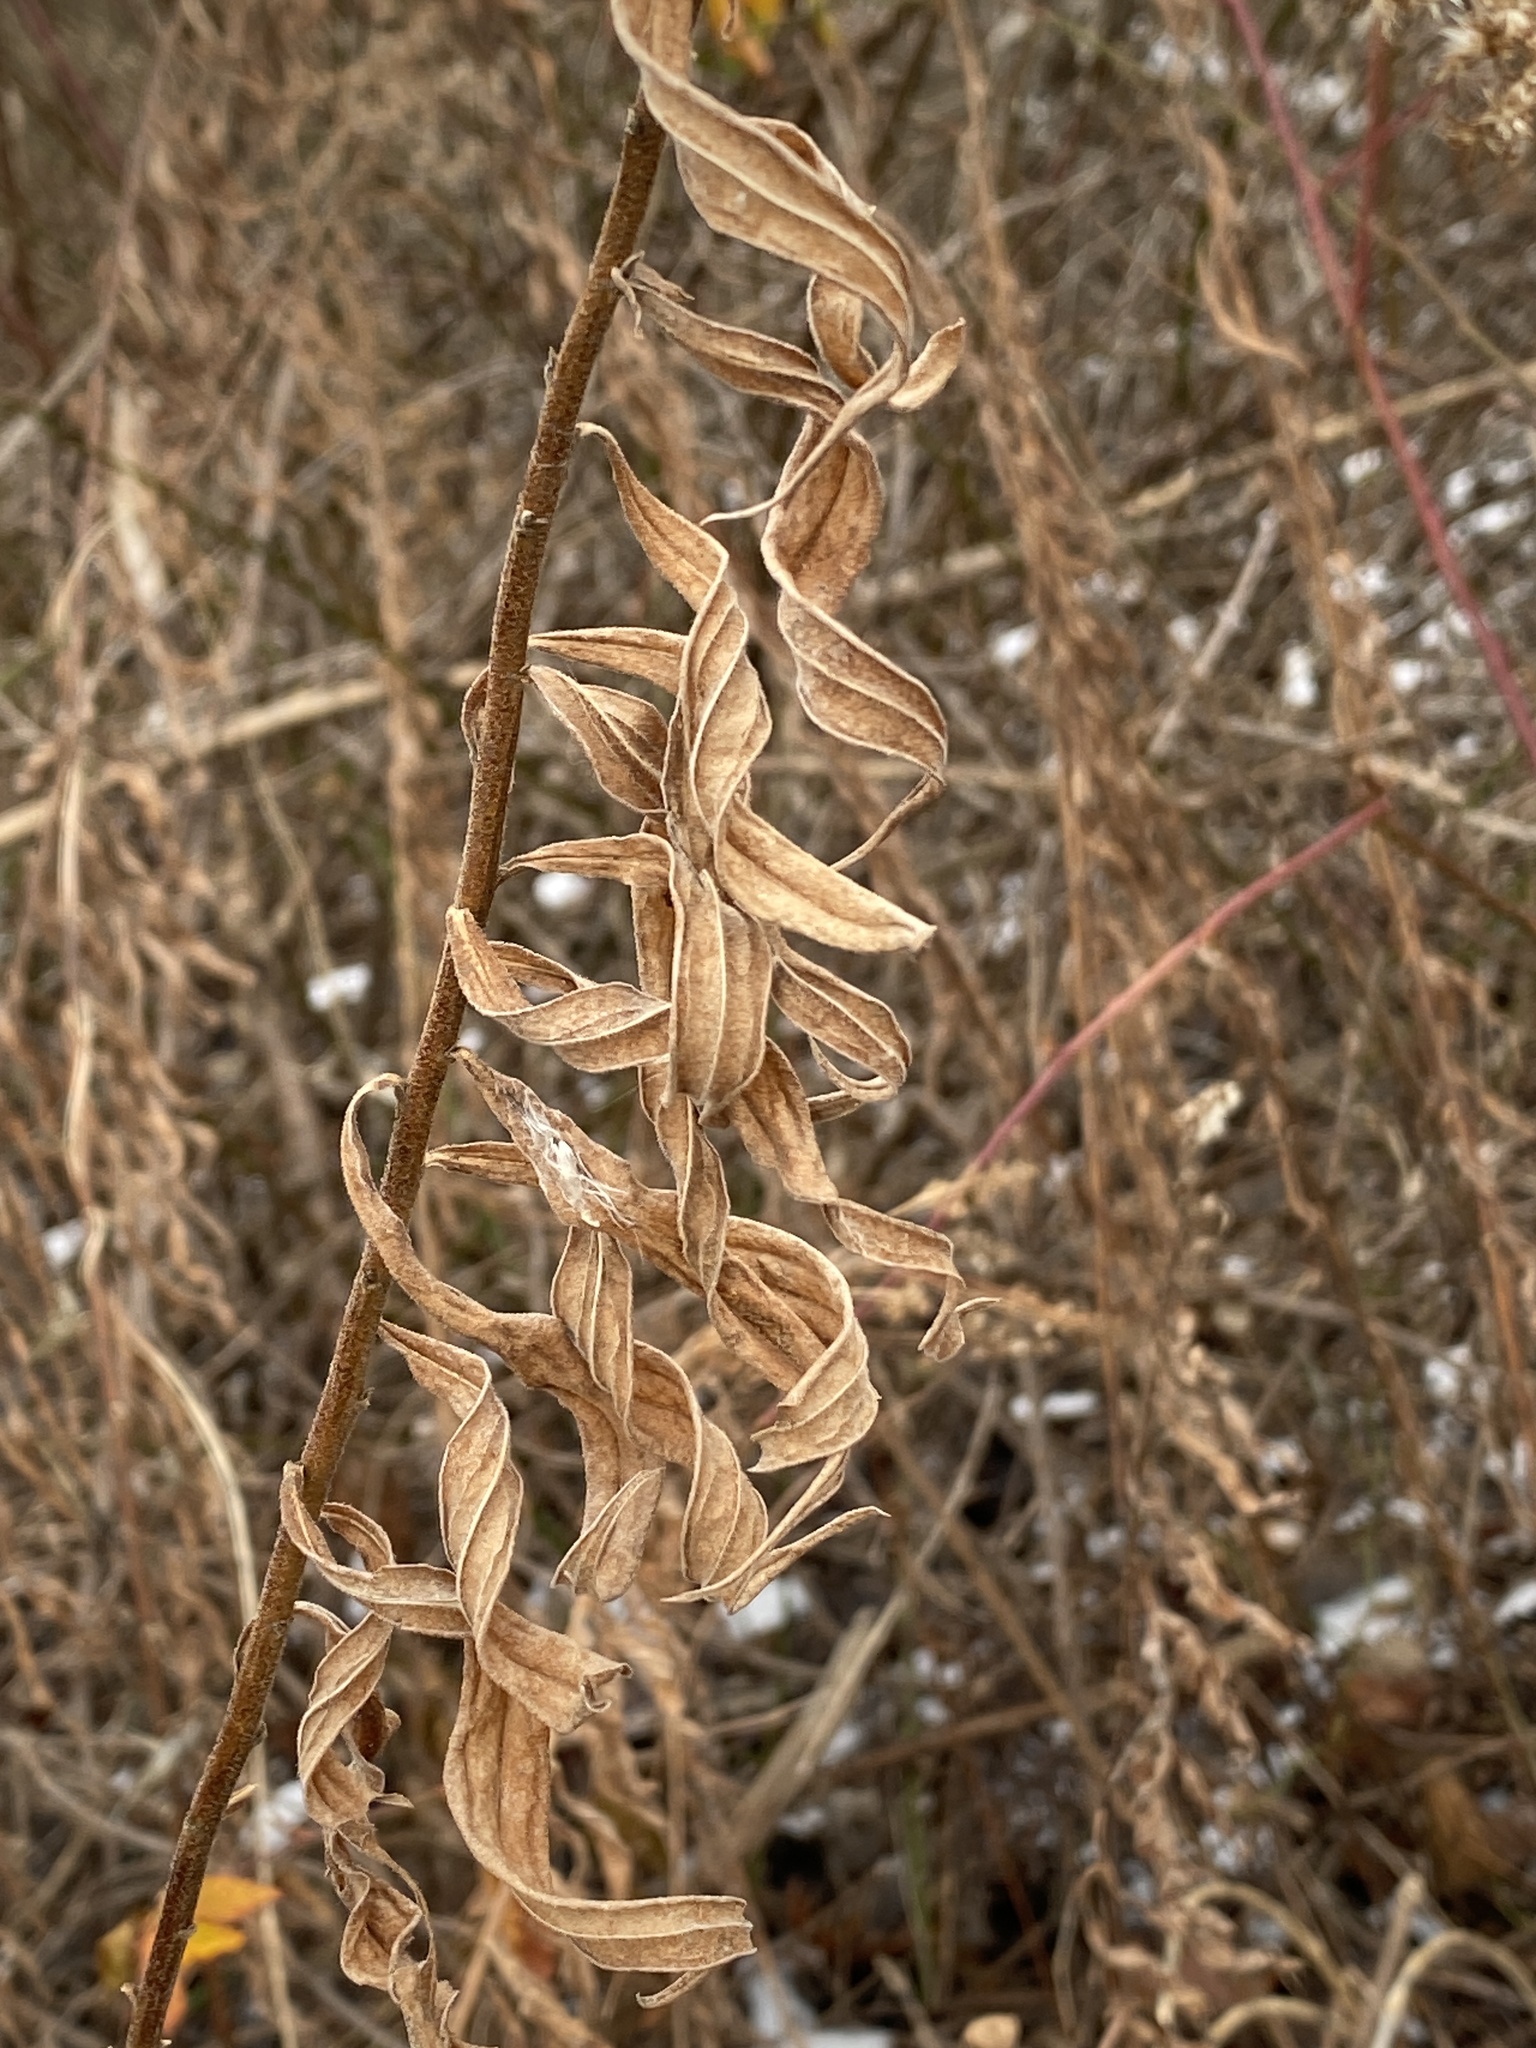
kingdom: Plantae
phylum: Tracheophyta
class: Magnoliopsida
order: Asterales
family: Asteraceae
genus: Solidago
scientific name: Solidago altissima
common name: Late goldenrod
